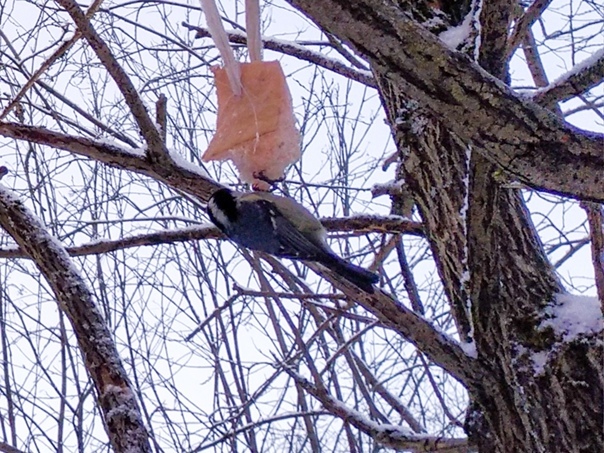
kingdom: Animalia
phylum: Chordata
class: Aves
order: Passeriformes
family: Paridae
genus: Periparus
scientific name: Periparus ater
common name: Coal tit
